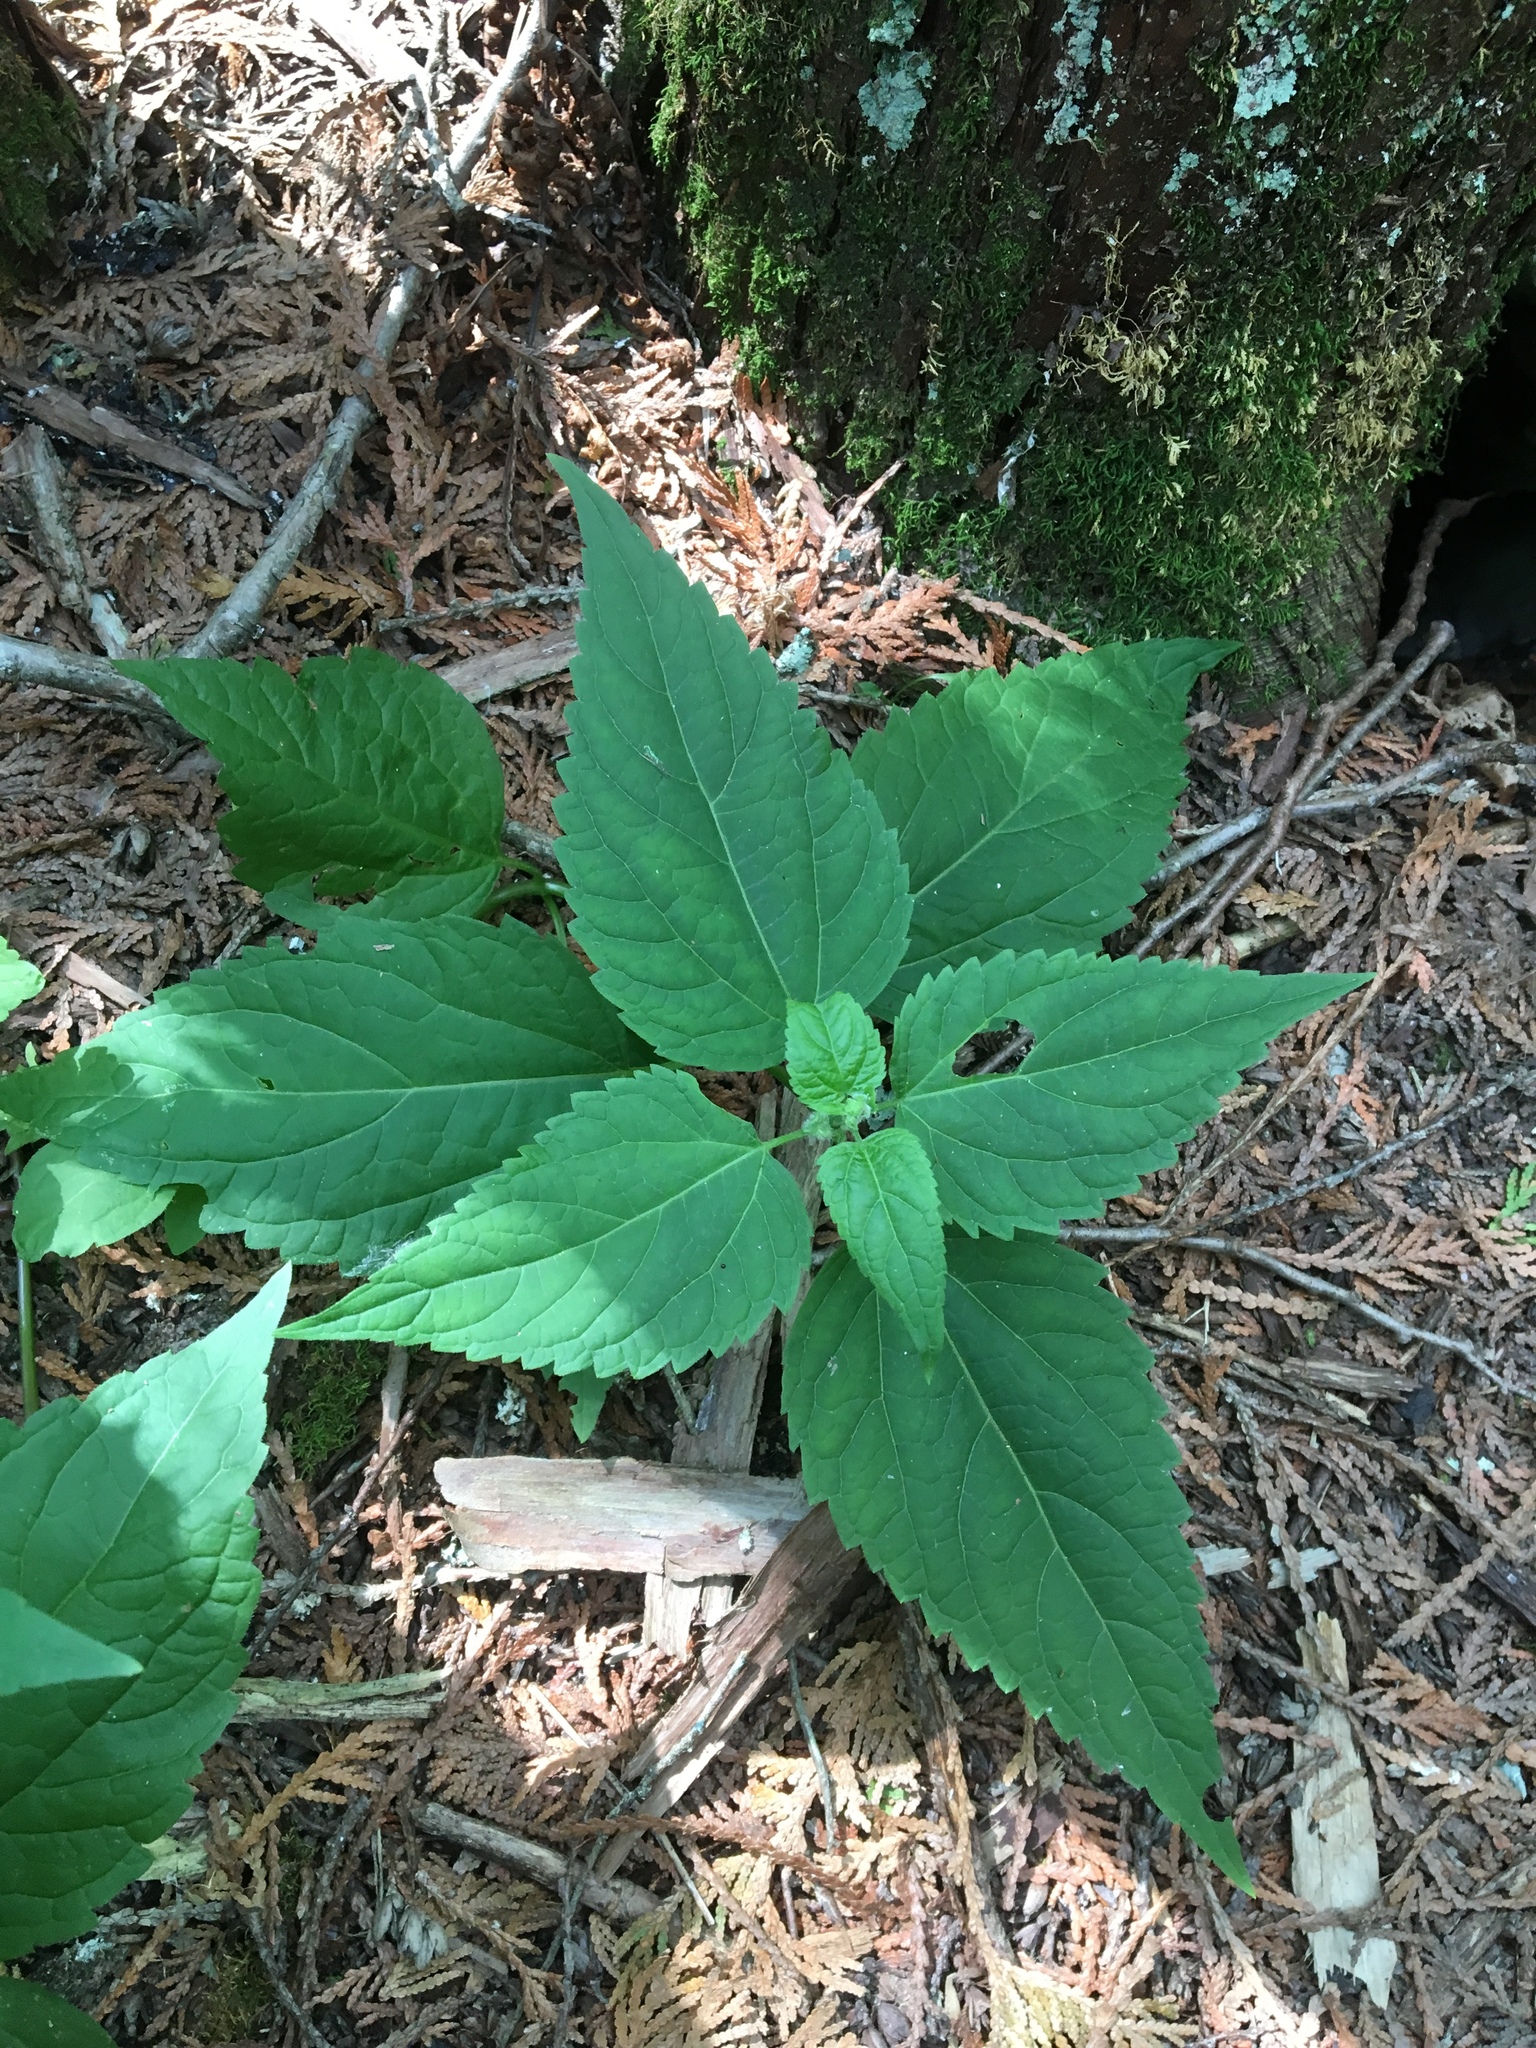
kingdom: Plantae
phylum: Tracheophyta
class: Magnoliopsida
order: Asterales
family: Asteraceae
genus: Ageratina
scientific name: Ageratina altissima
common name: White snakeroot
